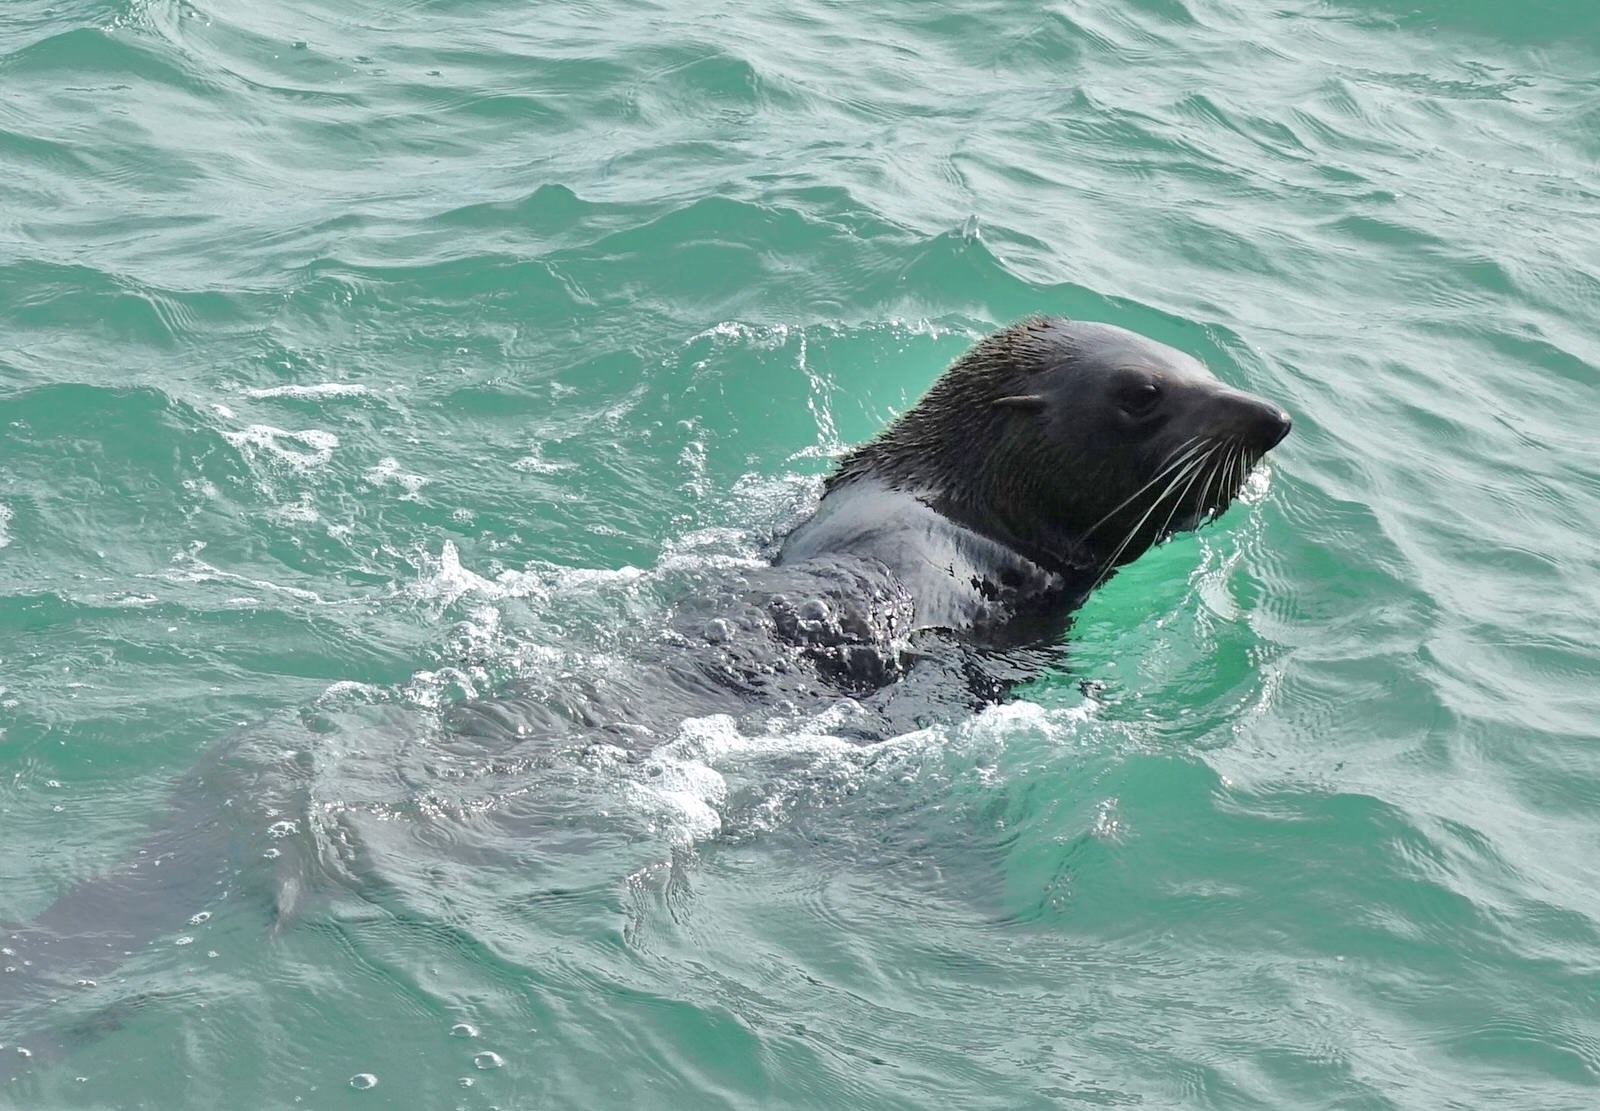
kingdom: Animalia
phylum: Chordata
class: Mammalia
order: Carnivora
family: Otariidae
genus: Arctocephalus
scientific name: Arctocephalus forsteri
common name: New zealand fur seal
